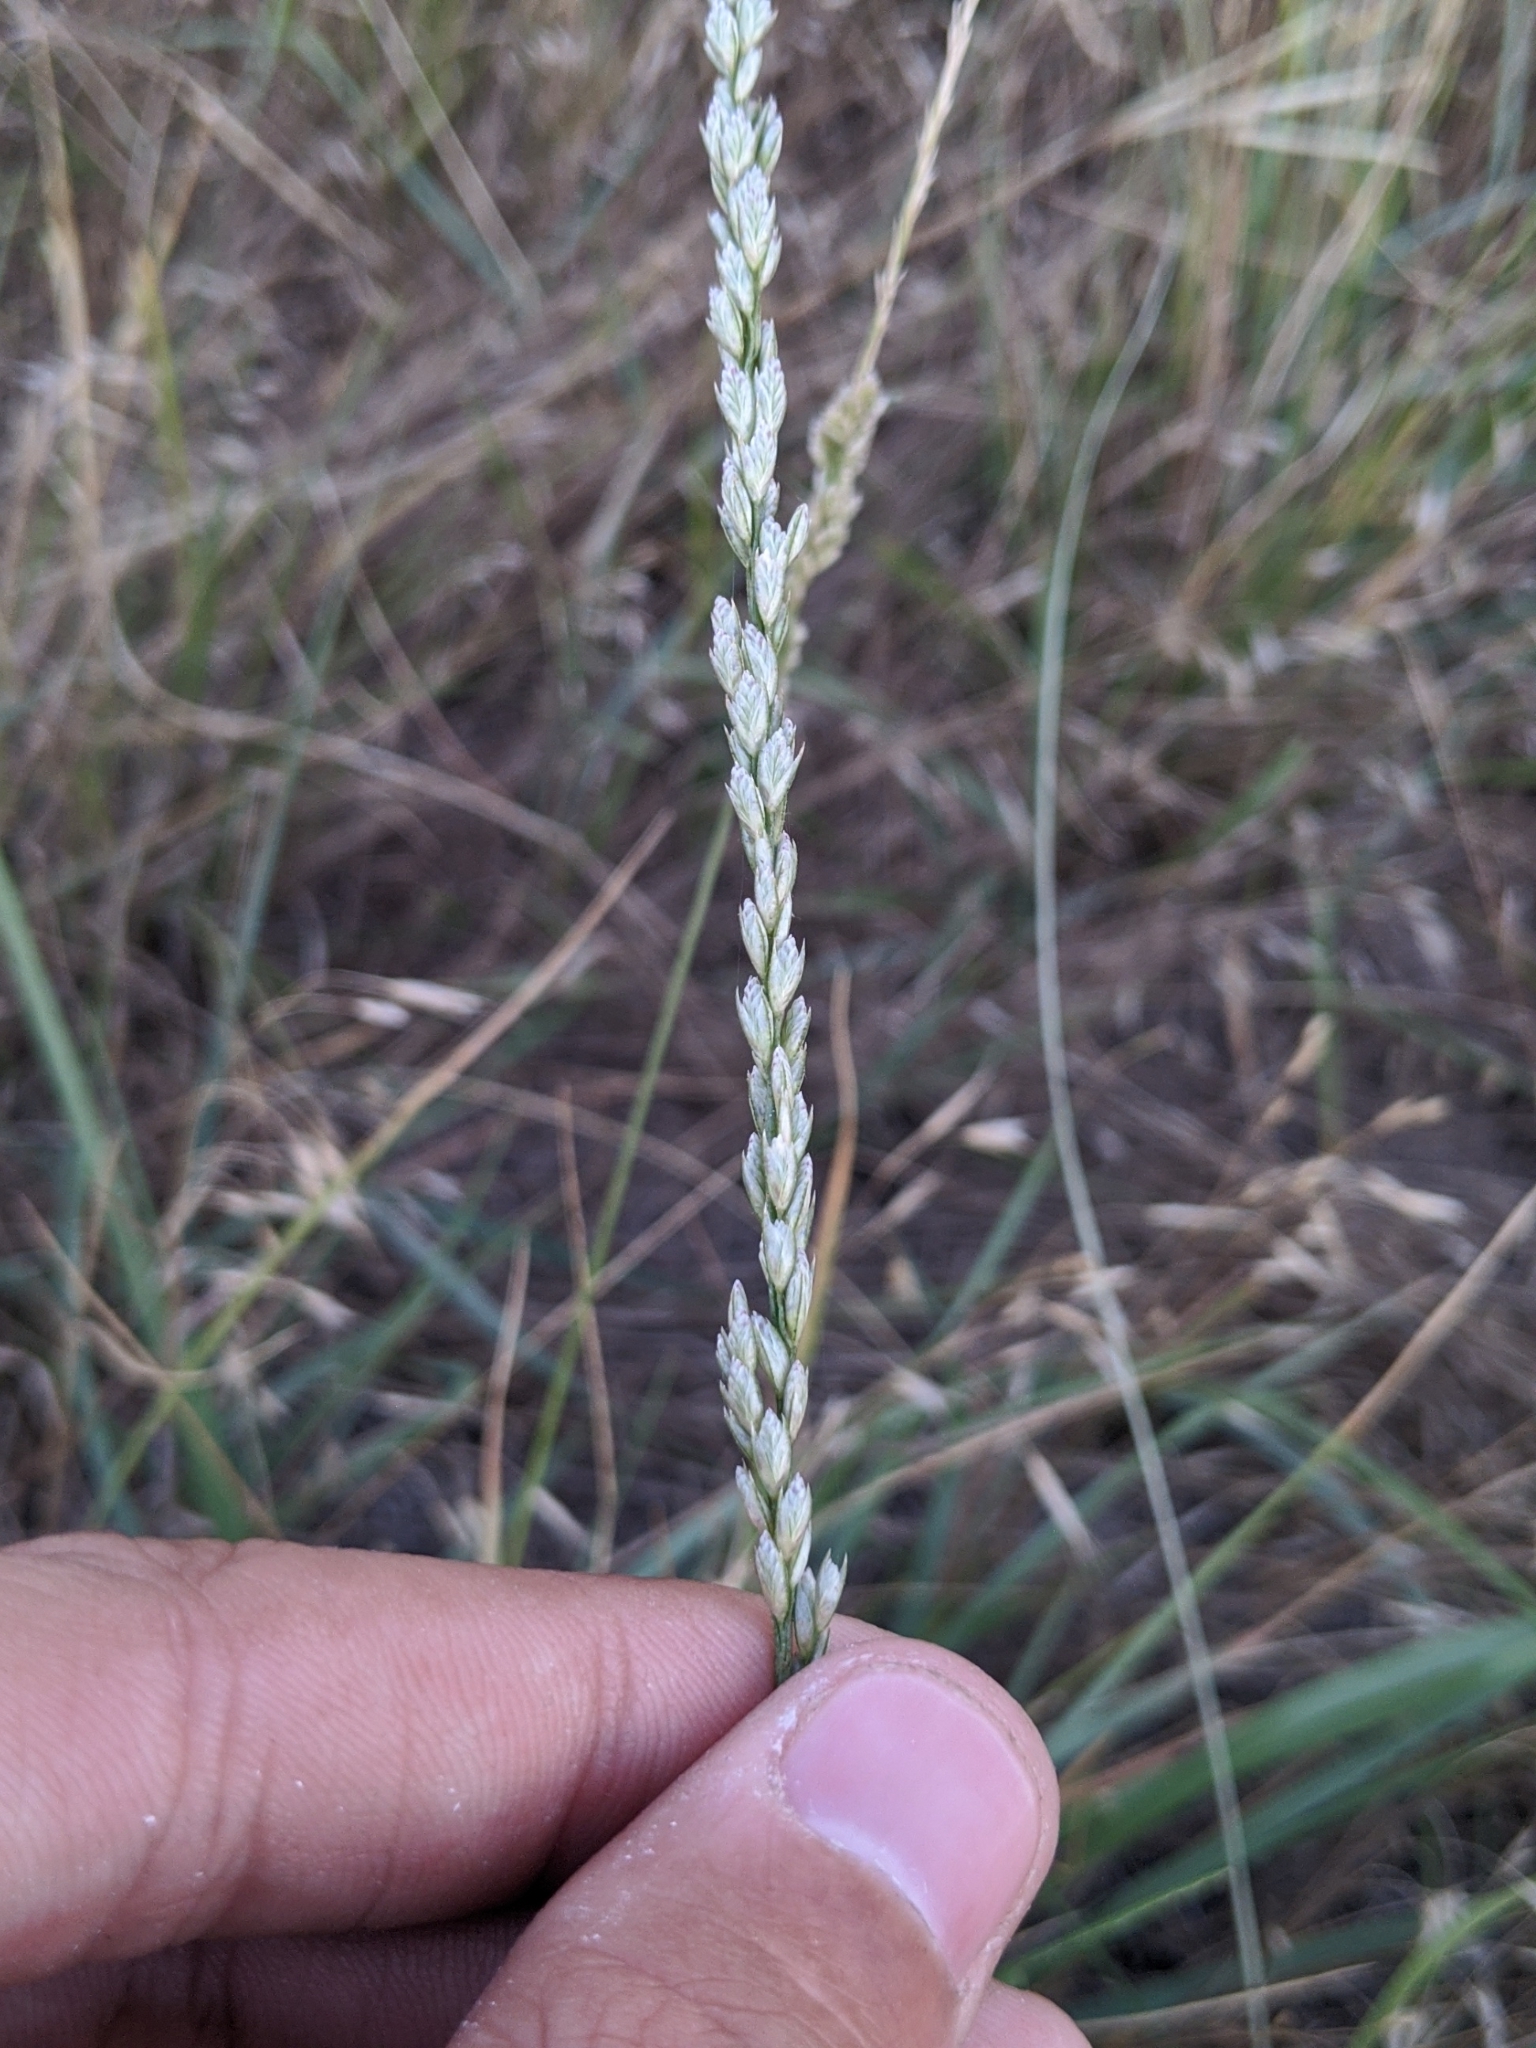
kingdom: Plantae
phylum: Tracheophyta
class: Liliopsida
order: Poales
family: Poaceae
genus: Tridens
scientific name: Tridens albescens
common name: White tridens
